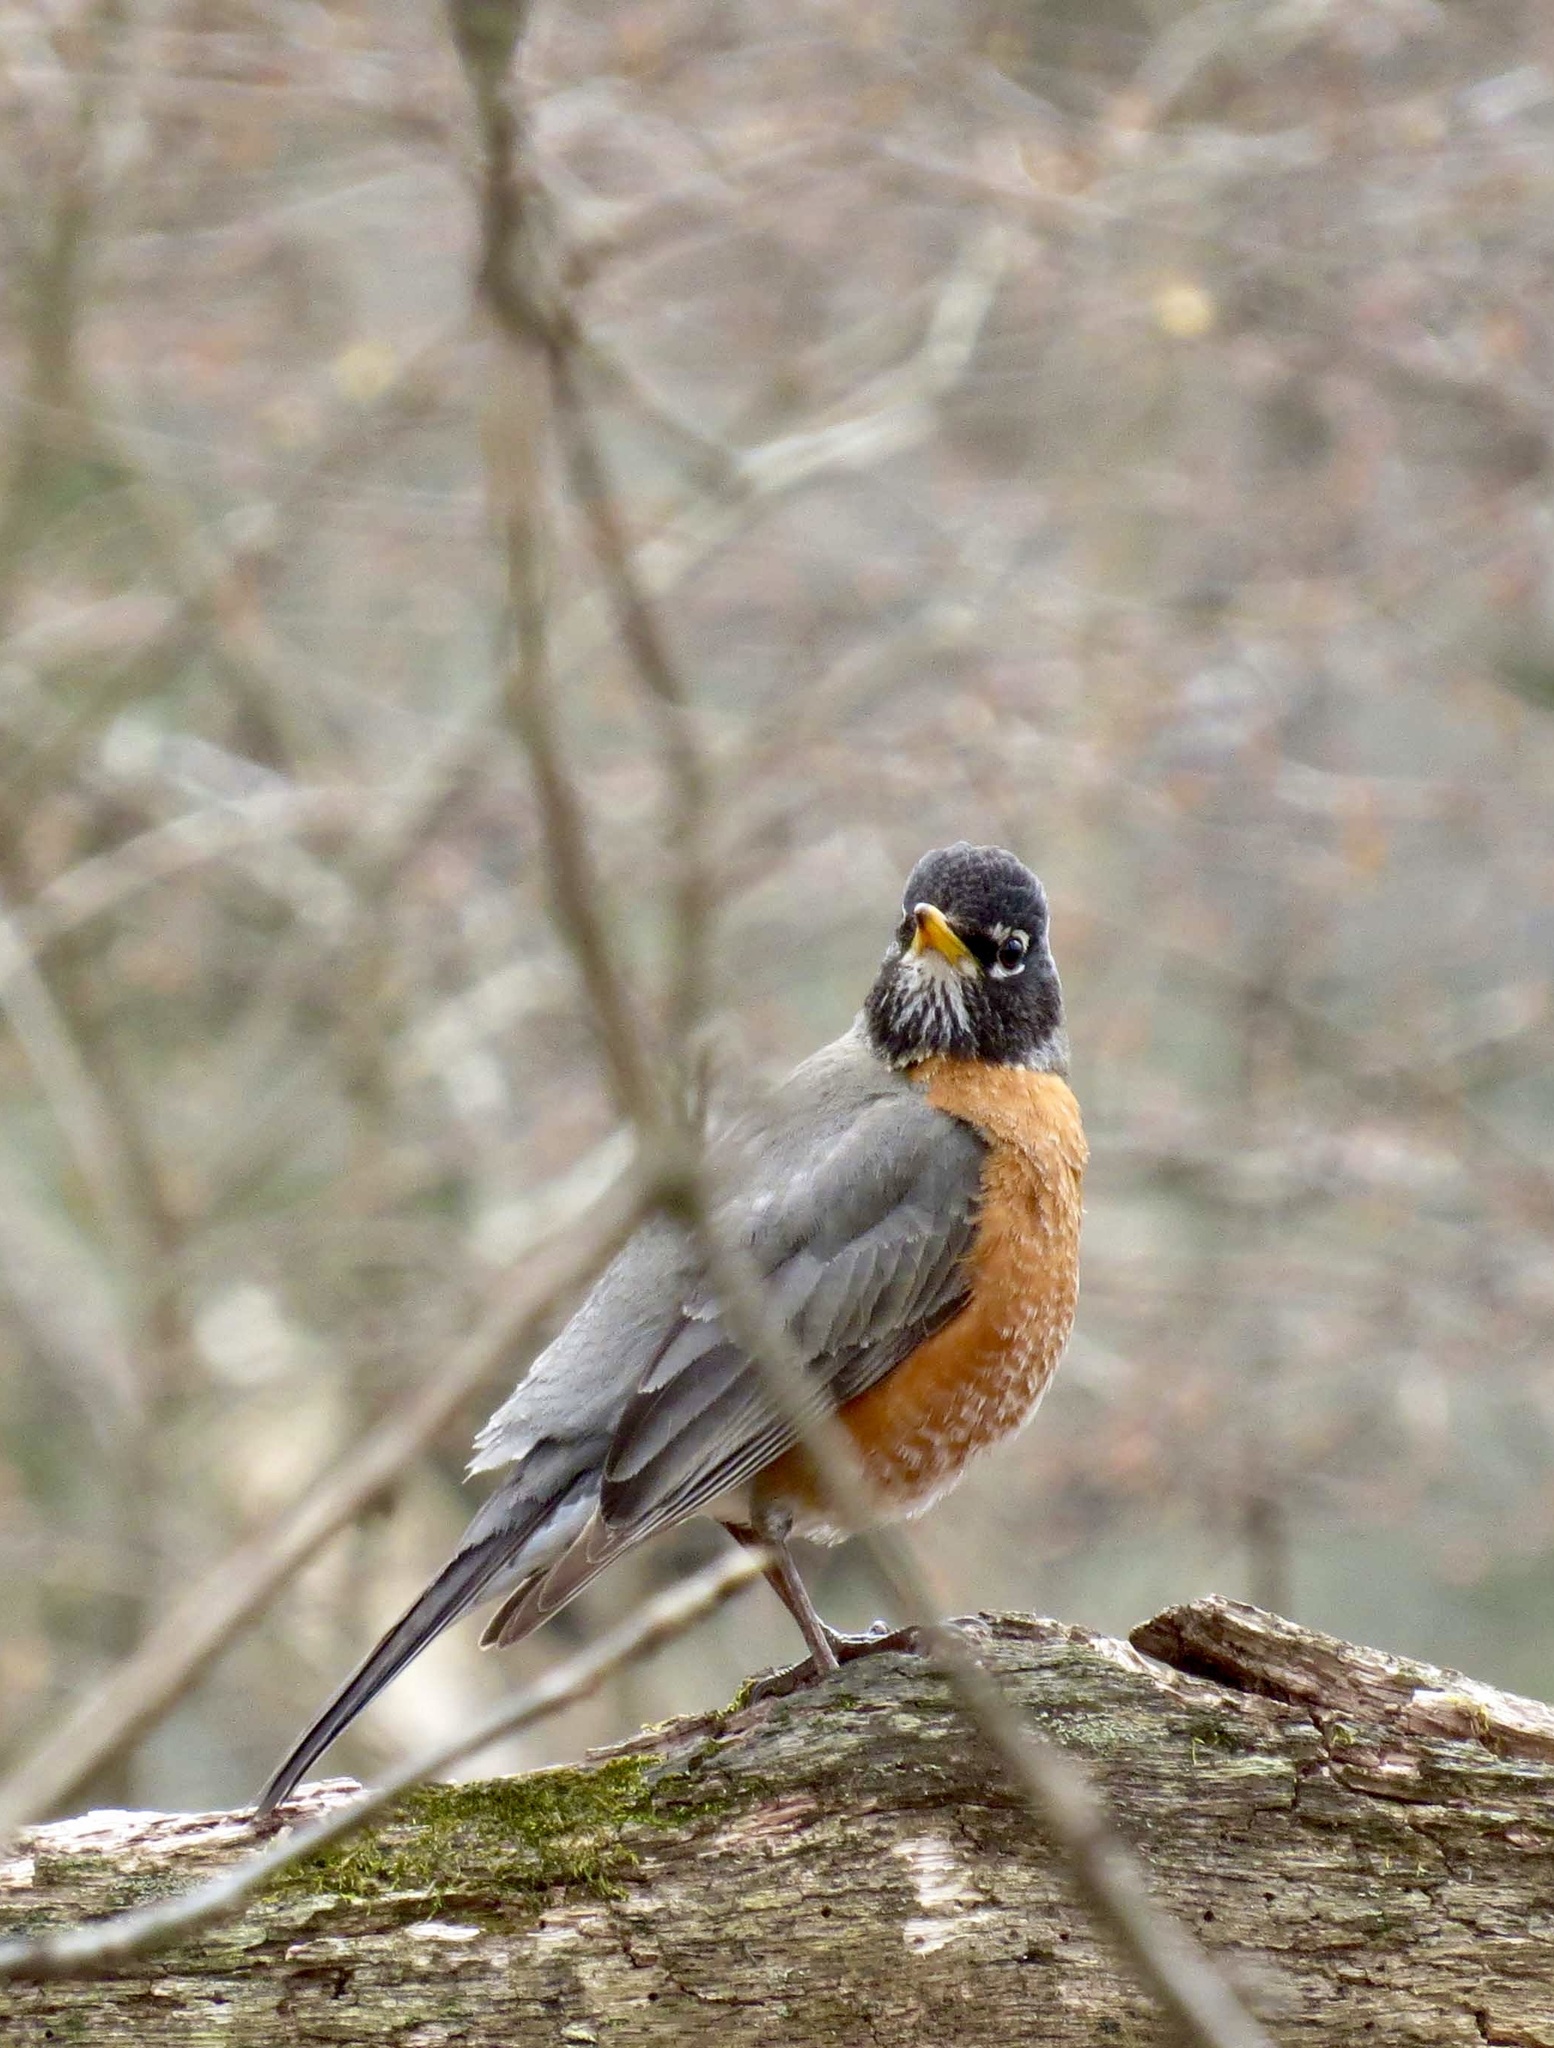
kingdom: Animalia
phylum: Chordata
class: Aves
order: Passeriformes
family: Turdidae
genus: Turdus
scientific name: Turdus migratorius
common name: American robin
